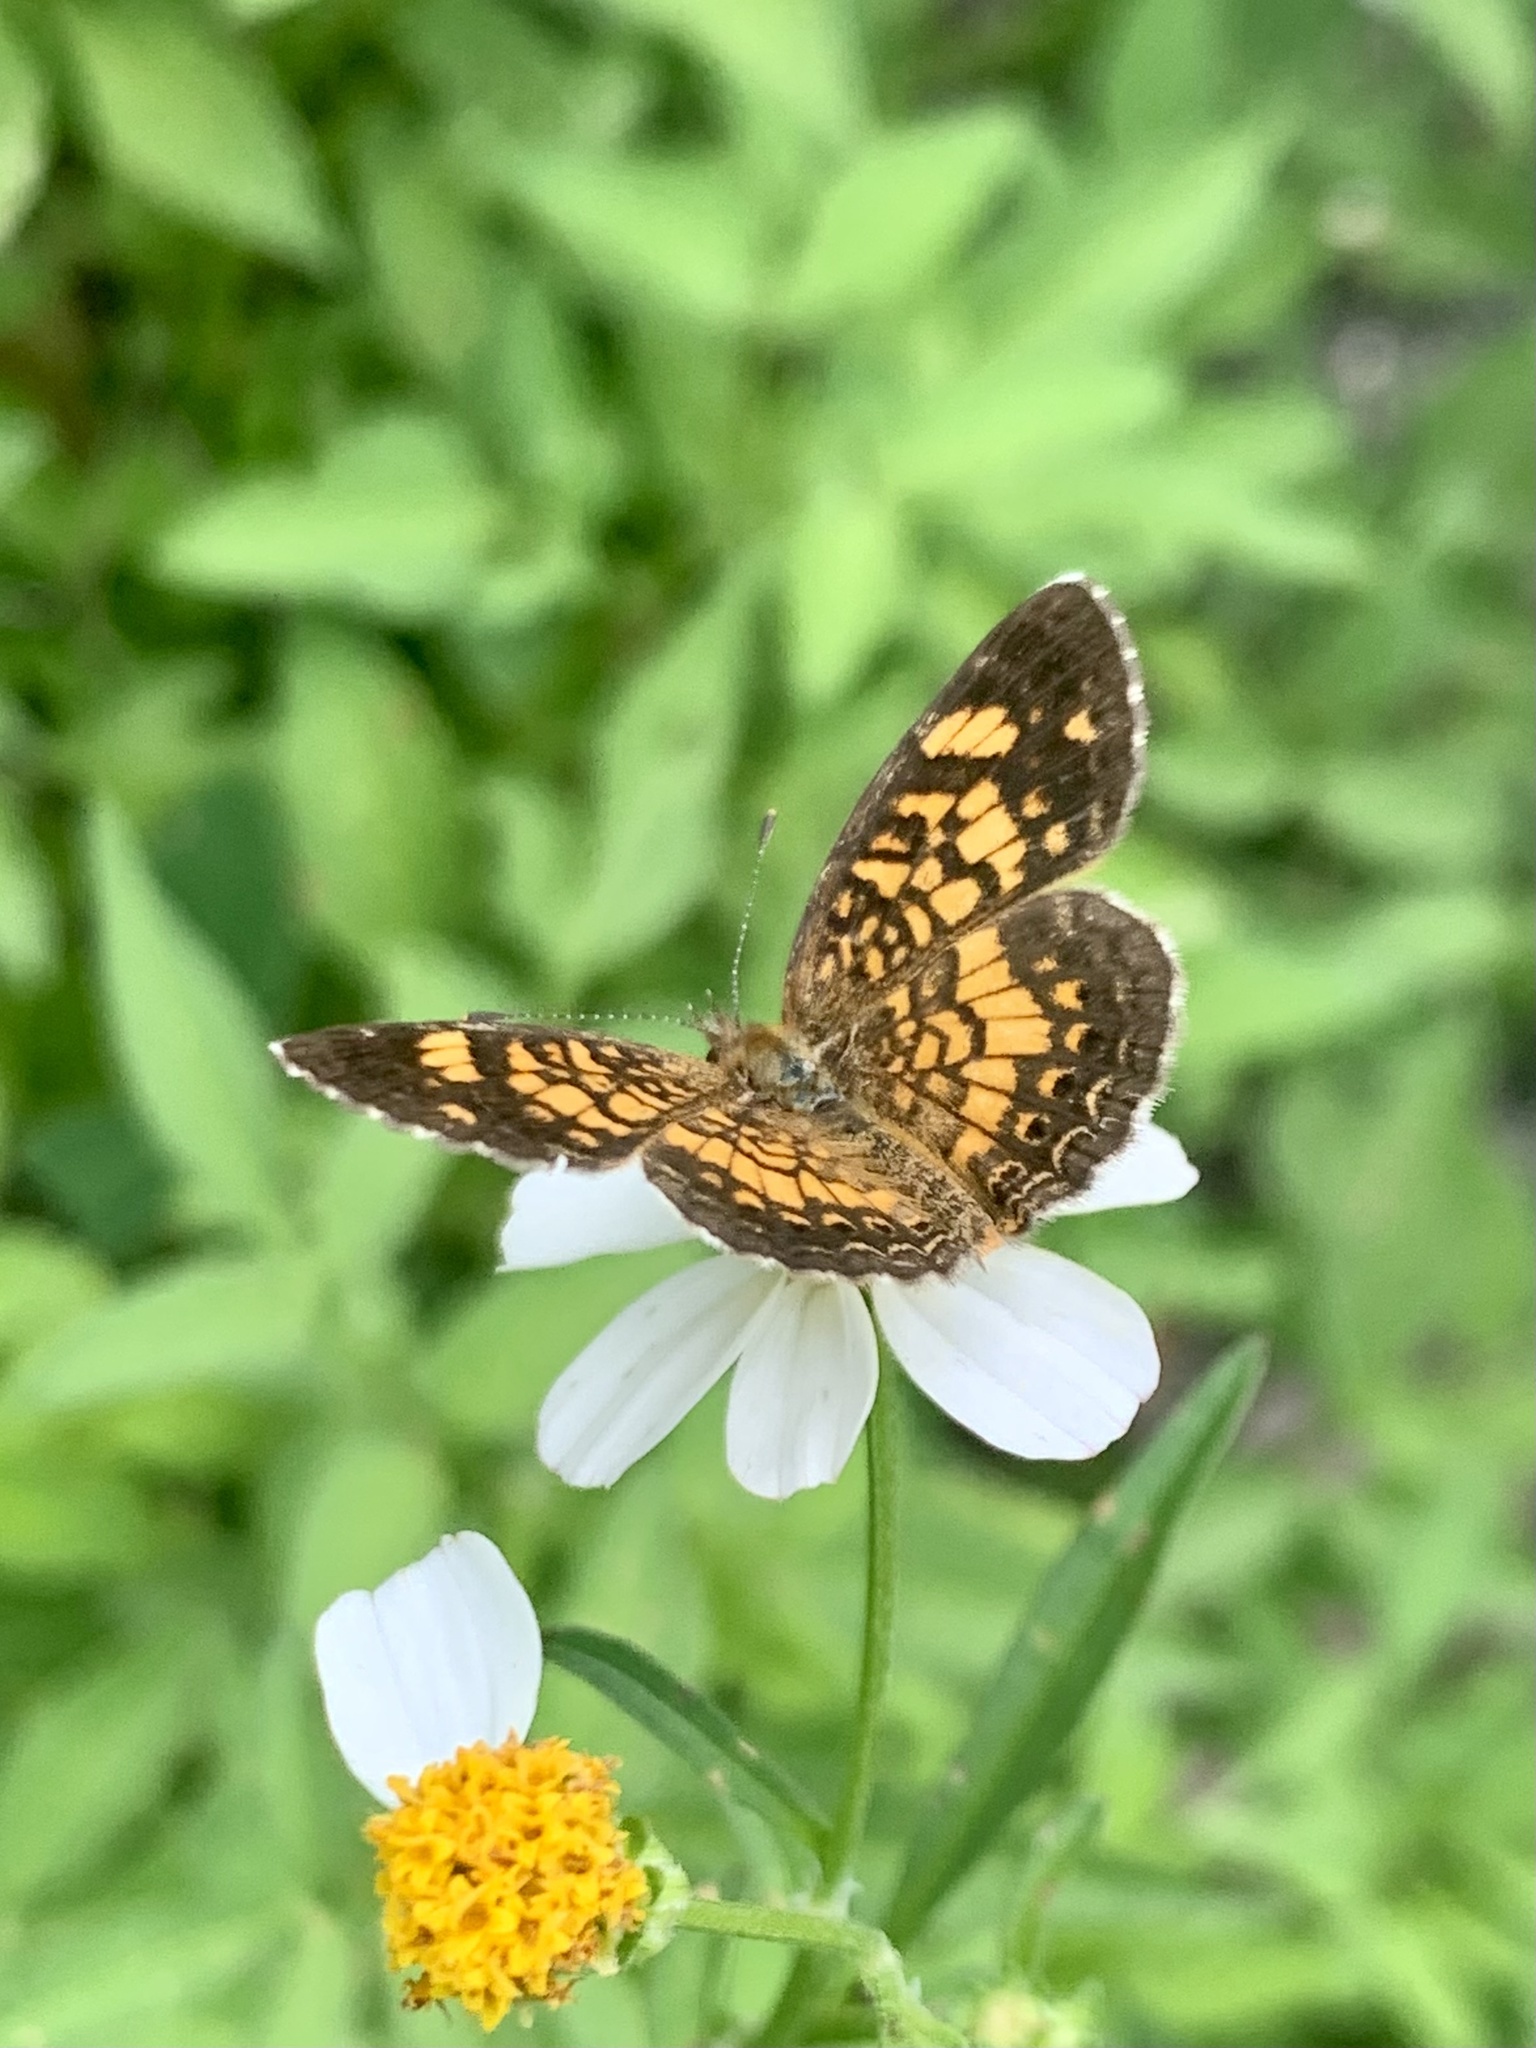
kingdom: Animalia
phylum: Arthropoda
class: Insecta
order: Lepidoptera
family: Nymphalidae
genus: Phyciodes
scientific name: Phyciodes vesta
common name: Vesta crescent
